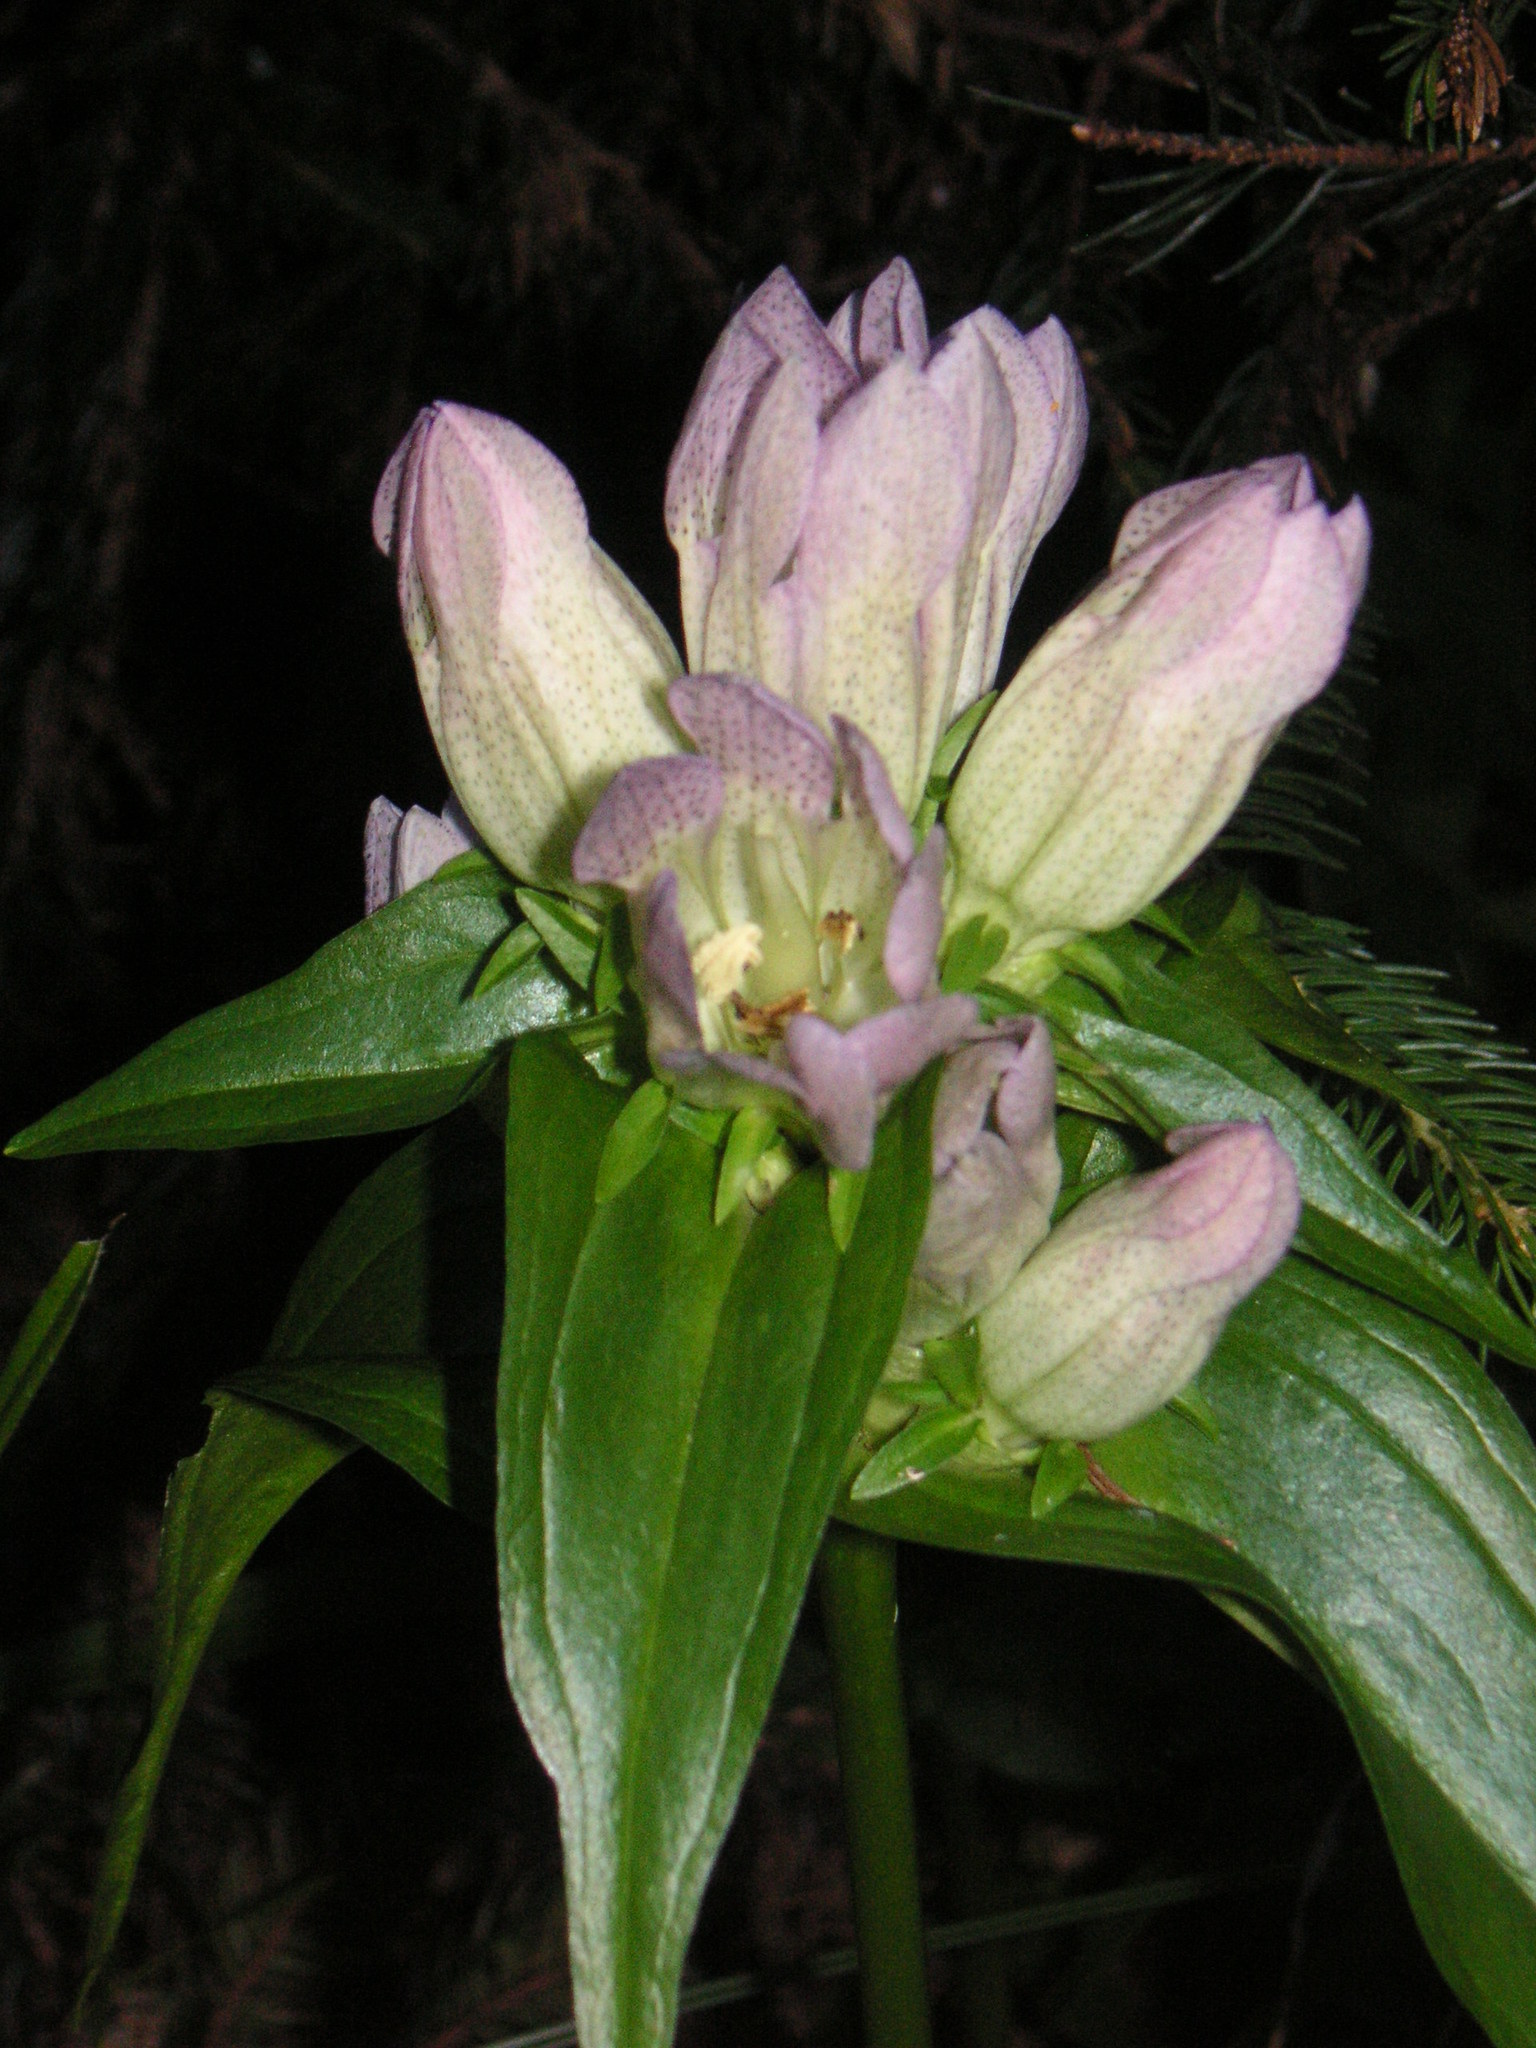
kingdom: Plantae
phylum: Tracheophyta
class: Magnoliopsida
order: Gentianales
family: Gentianaceae
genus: Gentiana
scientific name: Gentiana pannonica
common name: Hungarian gentian
